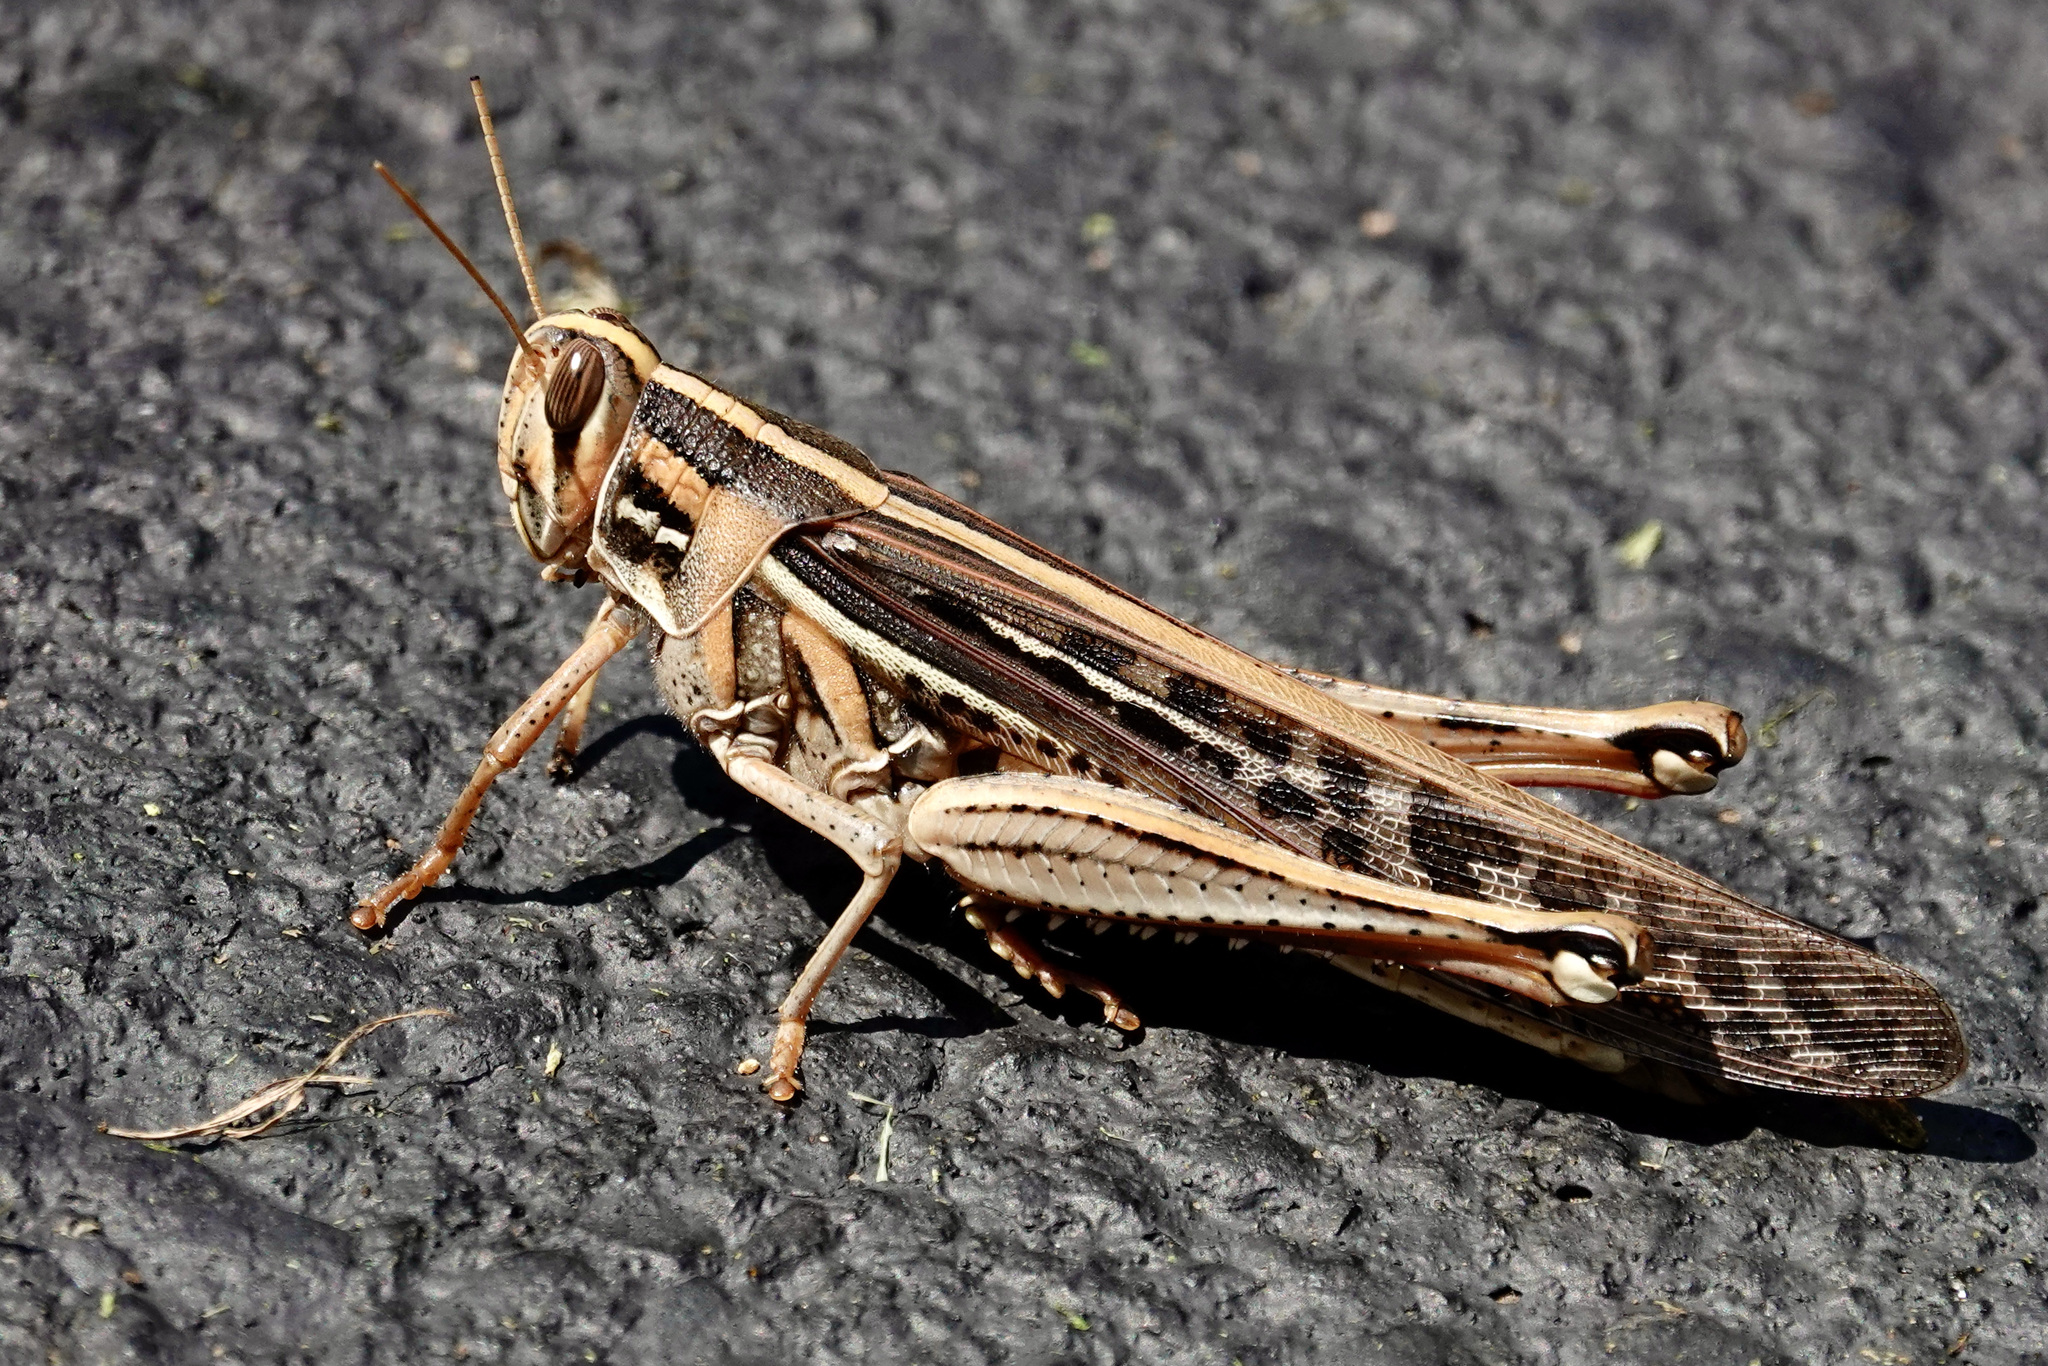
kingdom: Animalia
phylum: Arthropoda
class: Insecta
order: Orthoptera
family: Acrididae
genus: Schistocerca
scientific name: Schistocerca americana
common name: American bird locust
